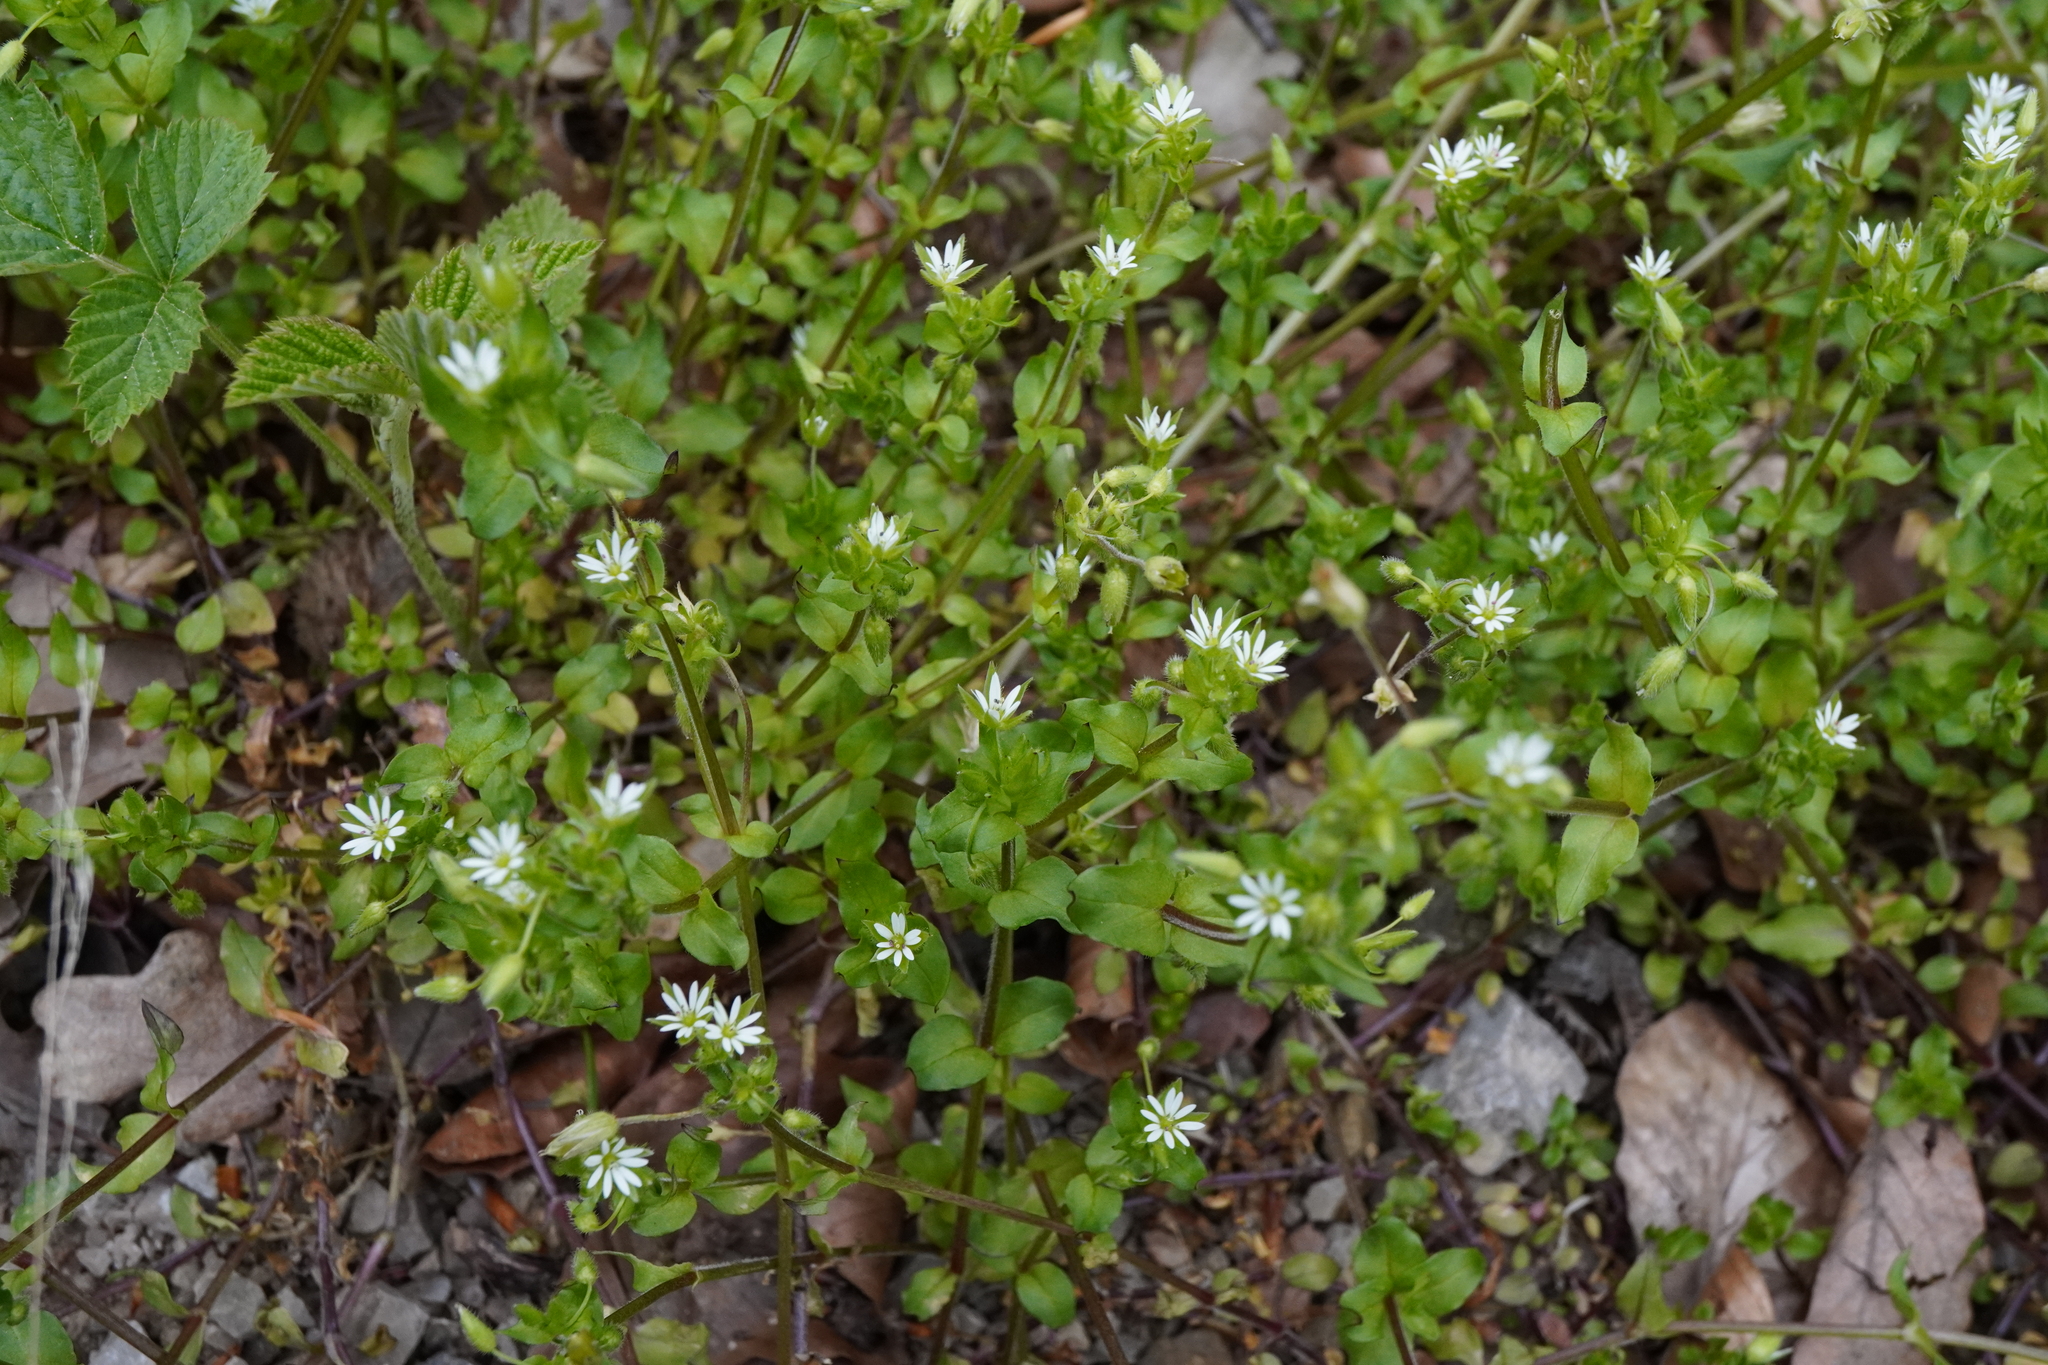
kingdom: Plantae
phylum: Tracheophyta
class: Magnoliopsida
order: Caryophyllales
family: Caryophyllaceae
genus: Stellaria
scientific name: Stellaria ruderalis
